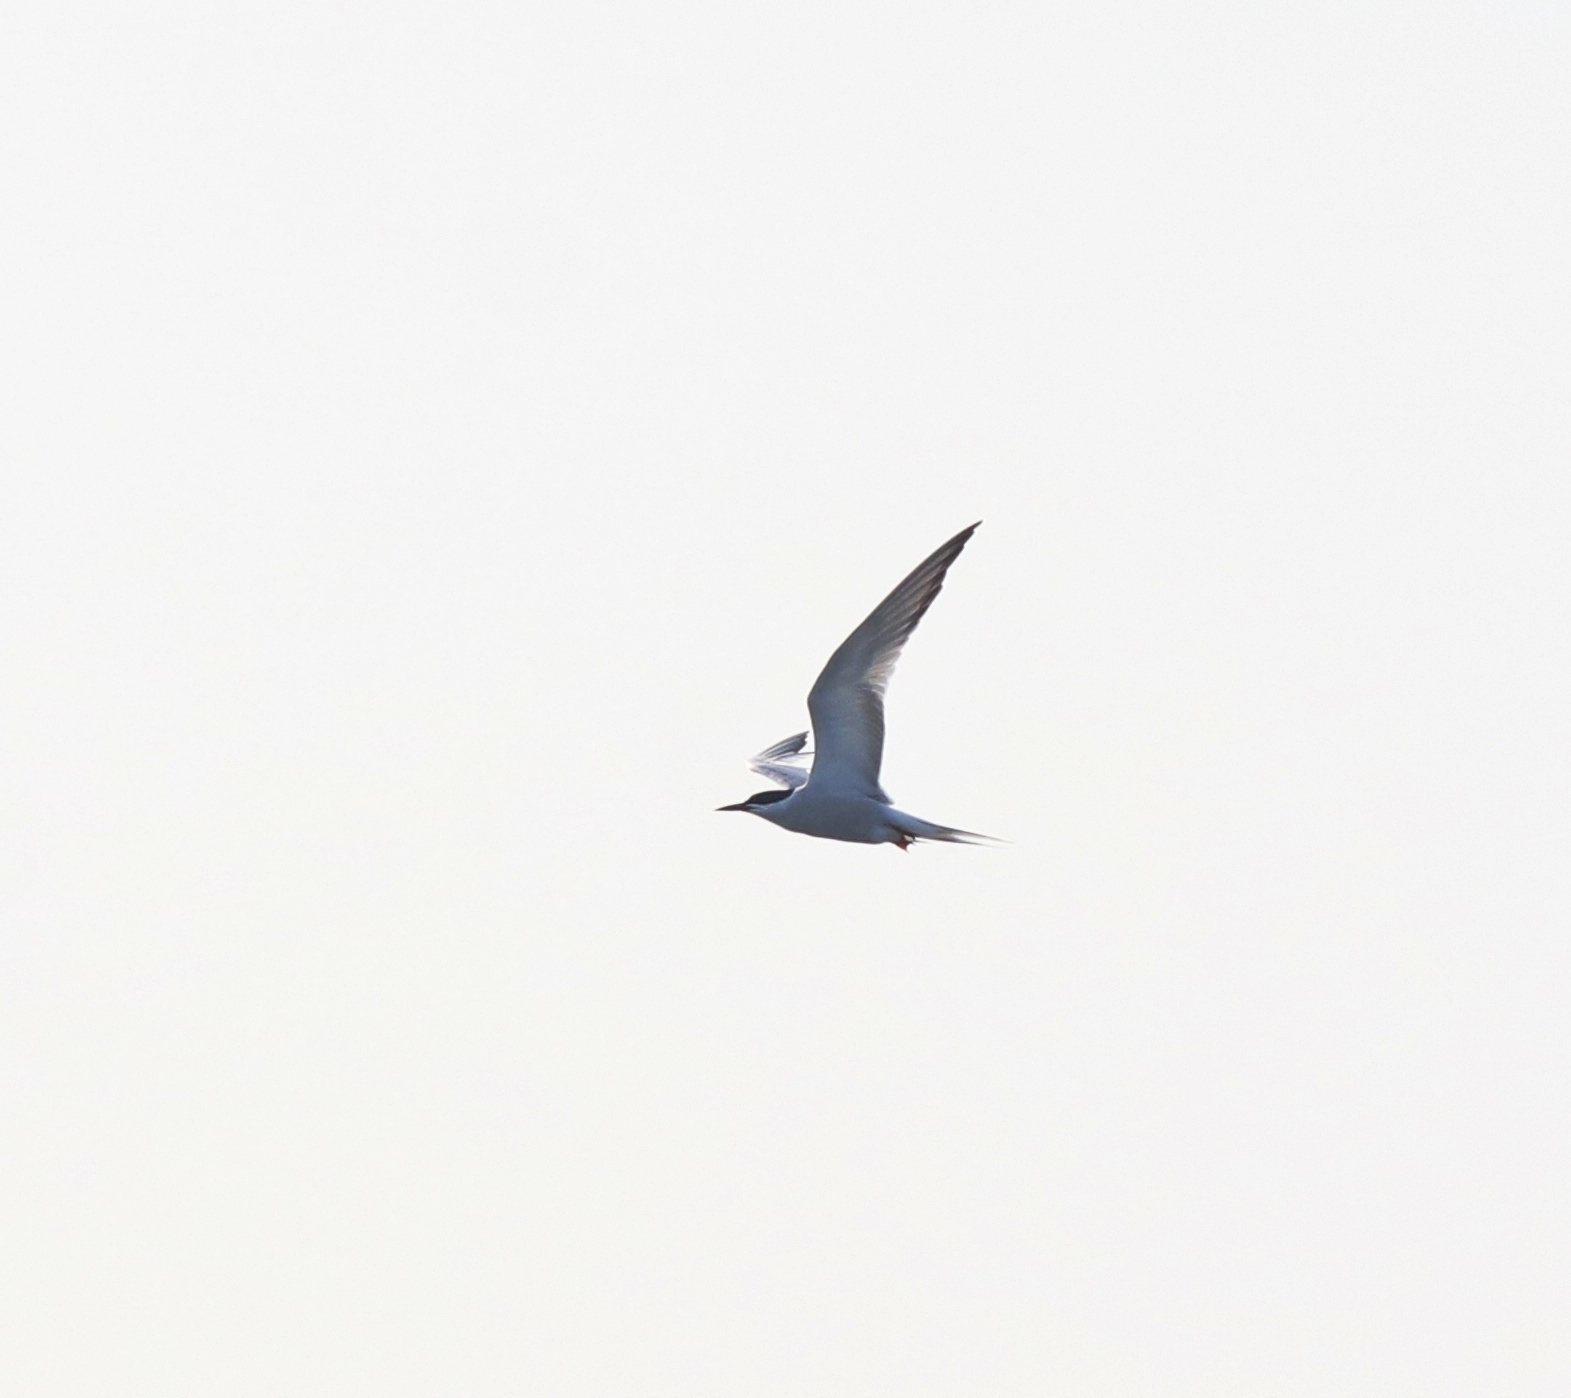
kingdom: Animalia
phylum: Chordata
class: Aves
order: Charadriiformes
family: Laridae
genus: Sterna
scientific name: Sterna hirundo
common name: Common tern
